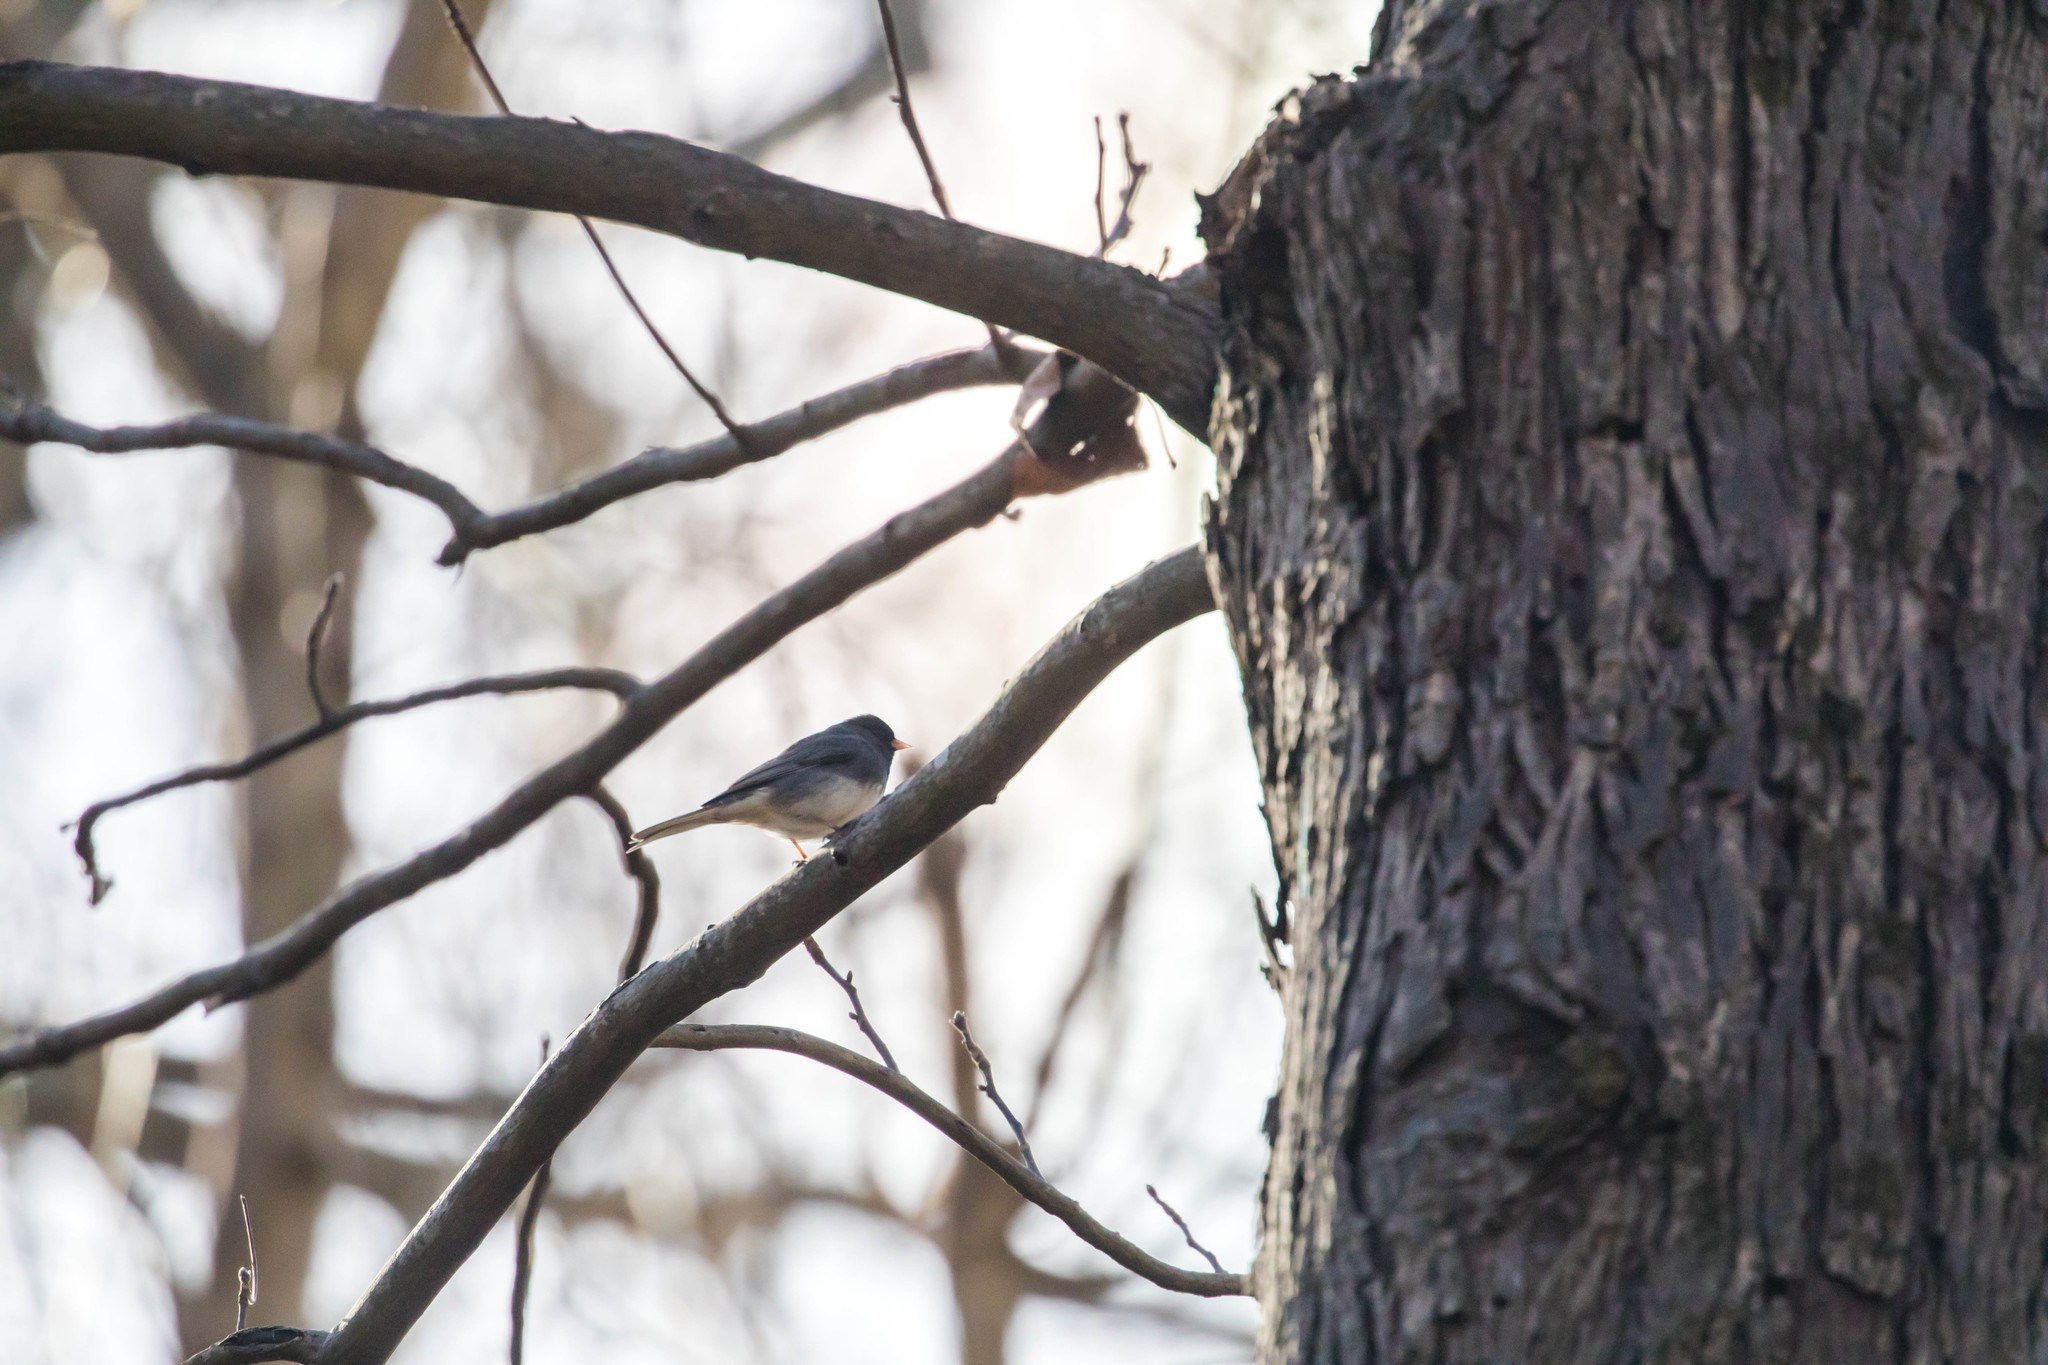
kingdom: Animalia
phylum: Chordata
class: Aves
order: Passeriformes
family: Passerellidae
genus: Junco
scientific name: Junco hyemalis
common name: Dark-eyed junco
